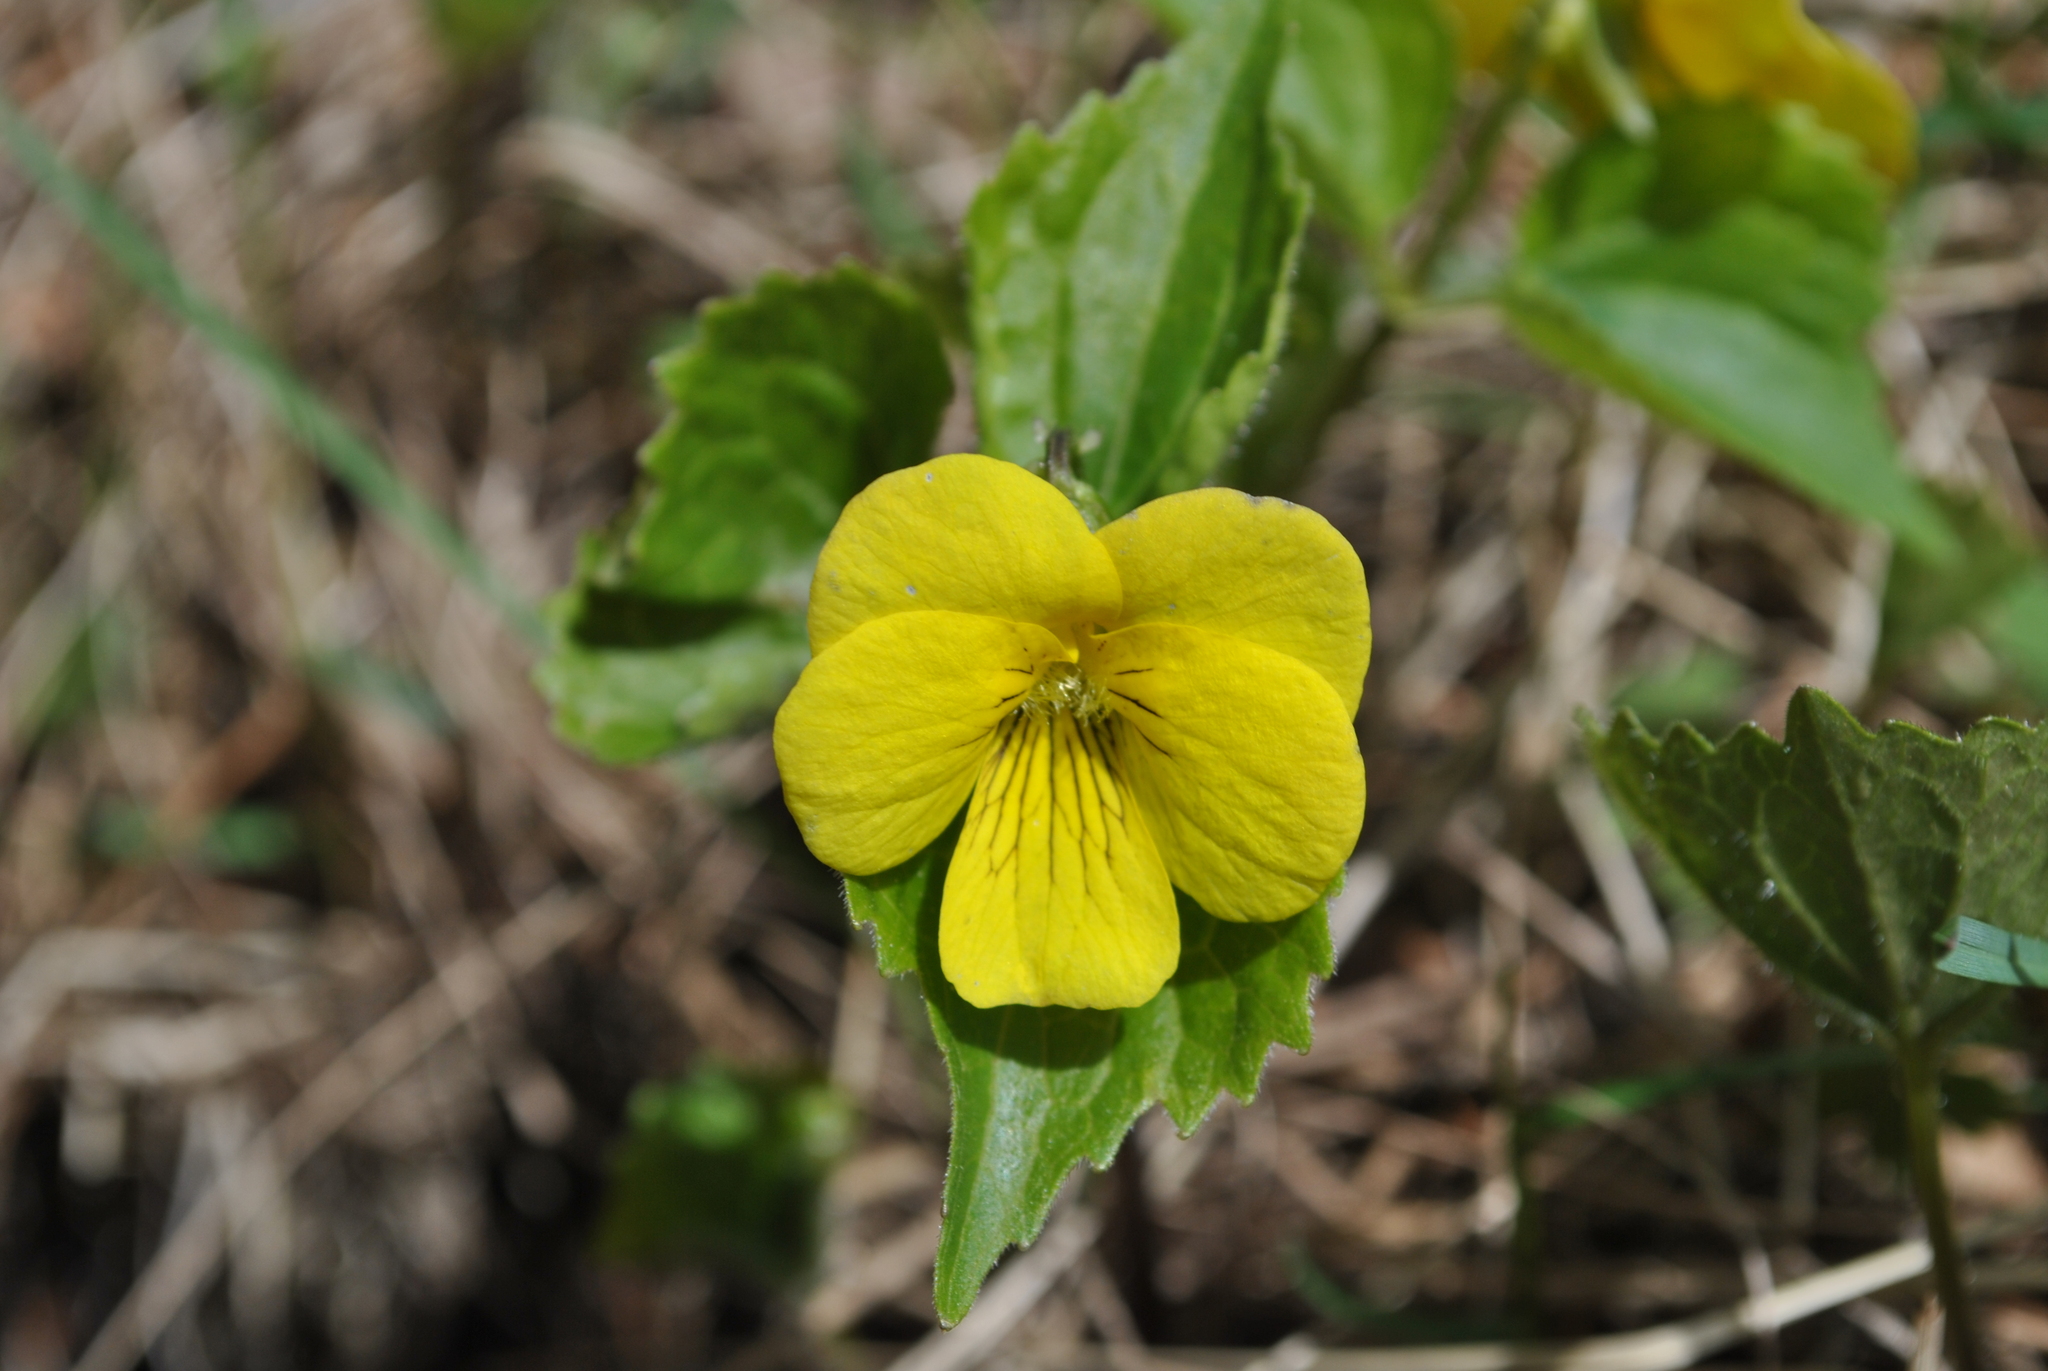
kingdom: Plantae
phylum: Tracheophyta
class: Magnoliopsida
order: Malpighiales
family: Violaceae
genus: Viola
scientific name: Viola uniflora
